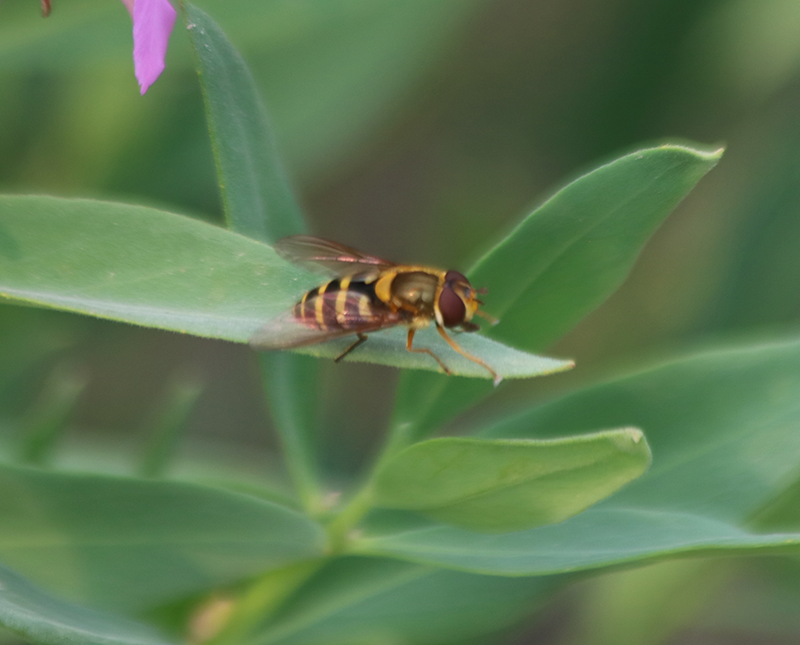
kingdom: Animalia
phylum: Arthropoda
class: Insecta
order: Diptera
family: Syrphidae
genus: Syrphus
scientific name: Syrphus
